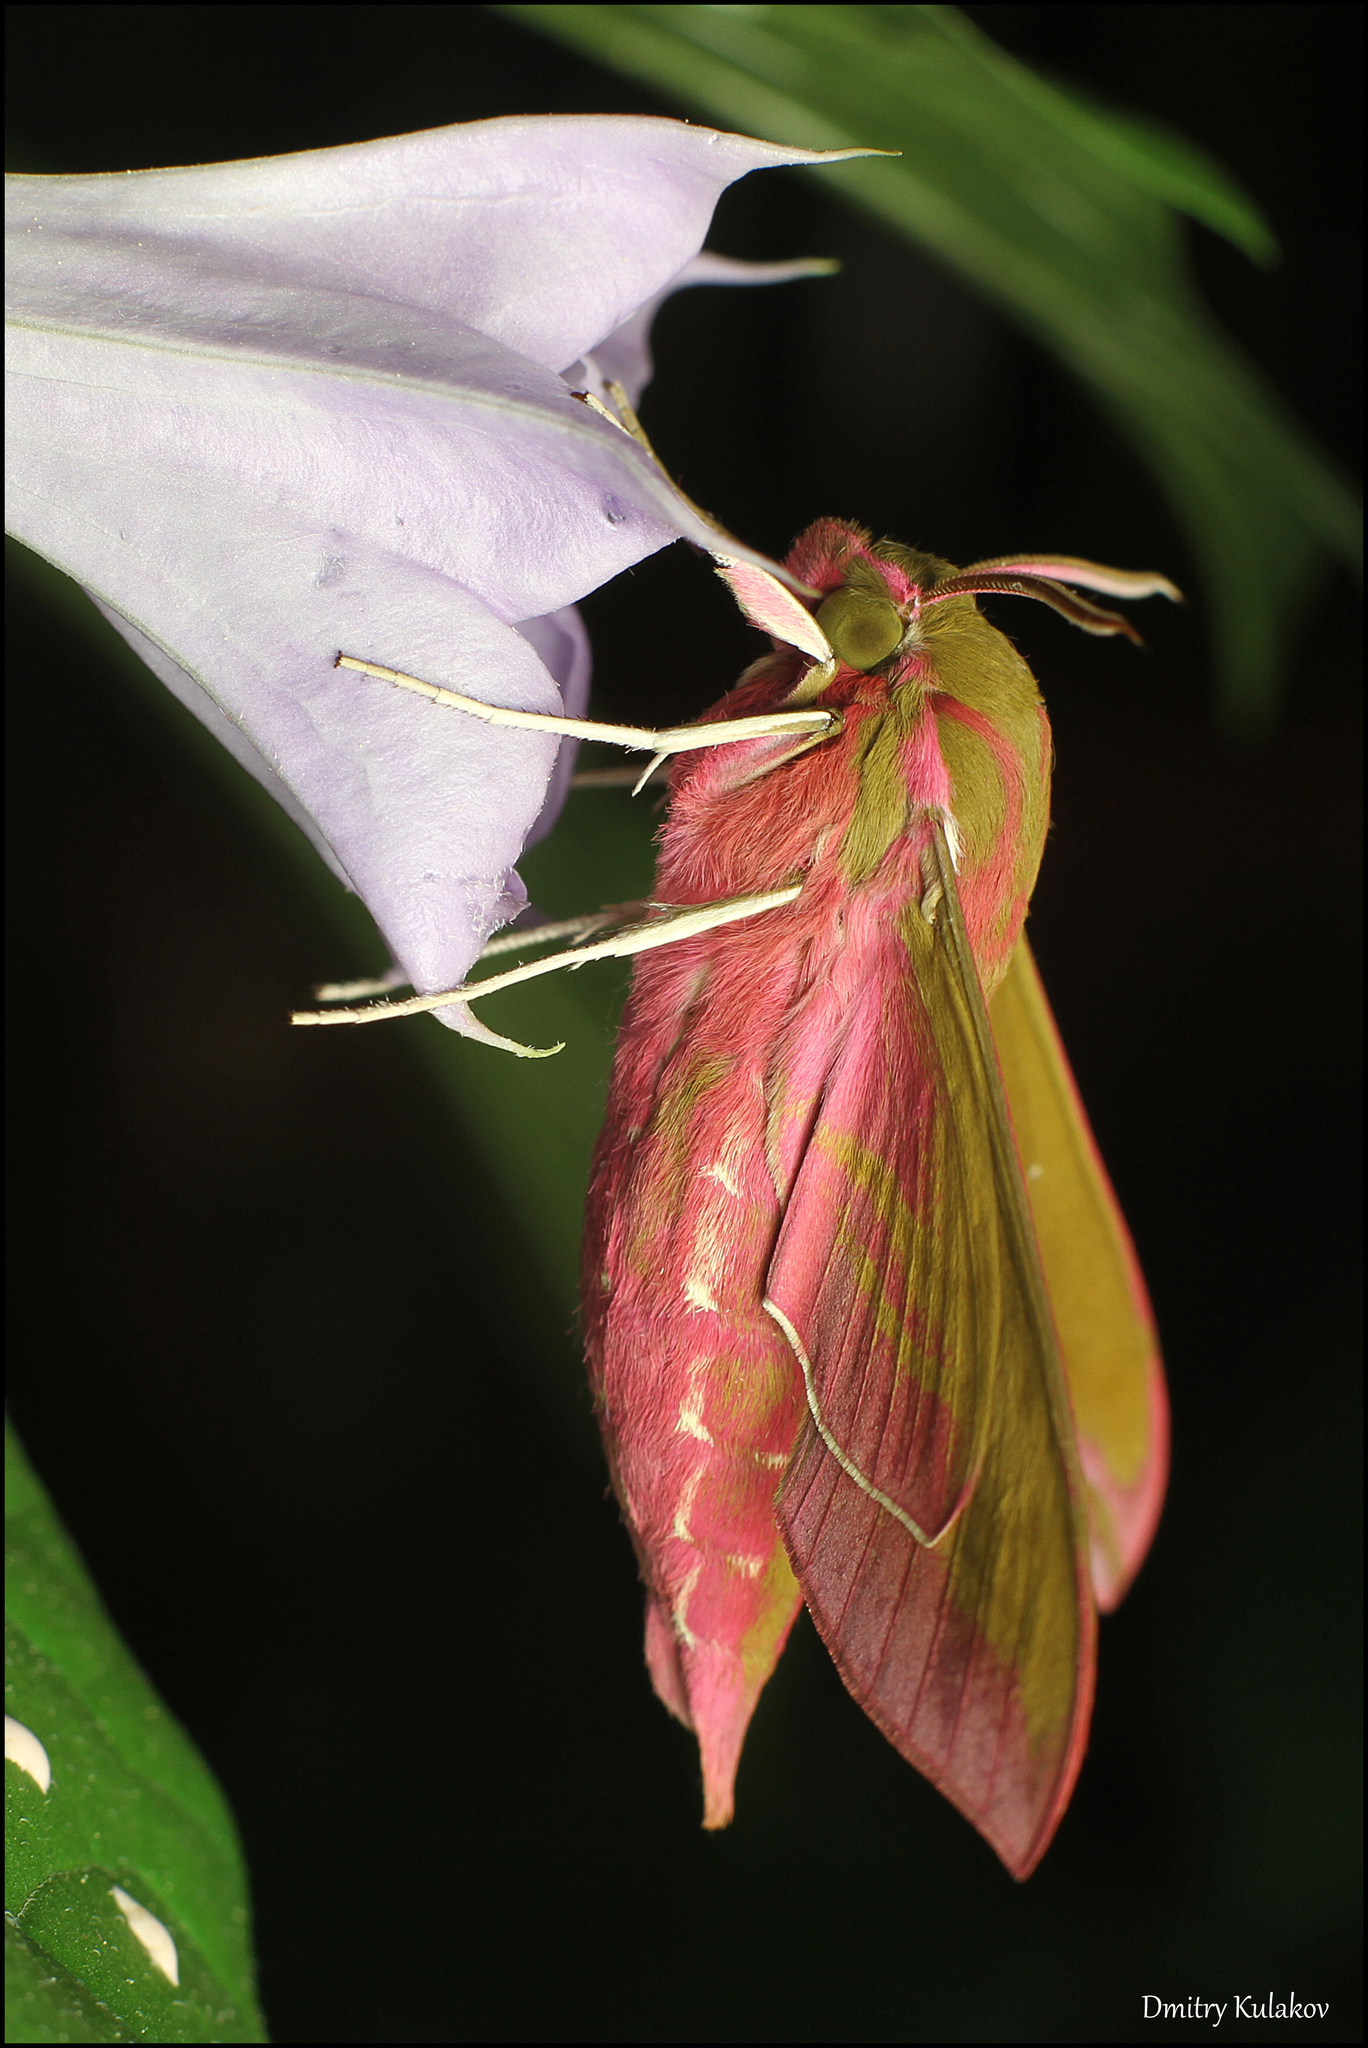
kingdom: Animalia
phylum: Arthropoda
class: Insecta
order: Lepidoptera
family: Sphingidae
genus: Deilephila
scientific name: Deilephila elpenor
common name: Elephant hawk-moth
